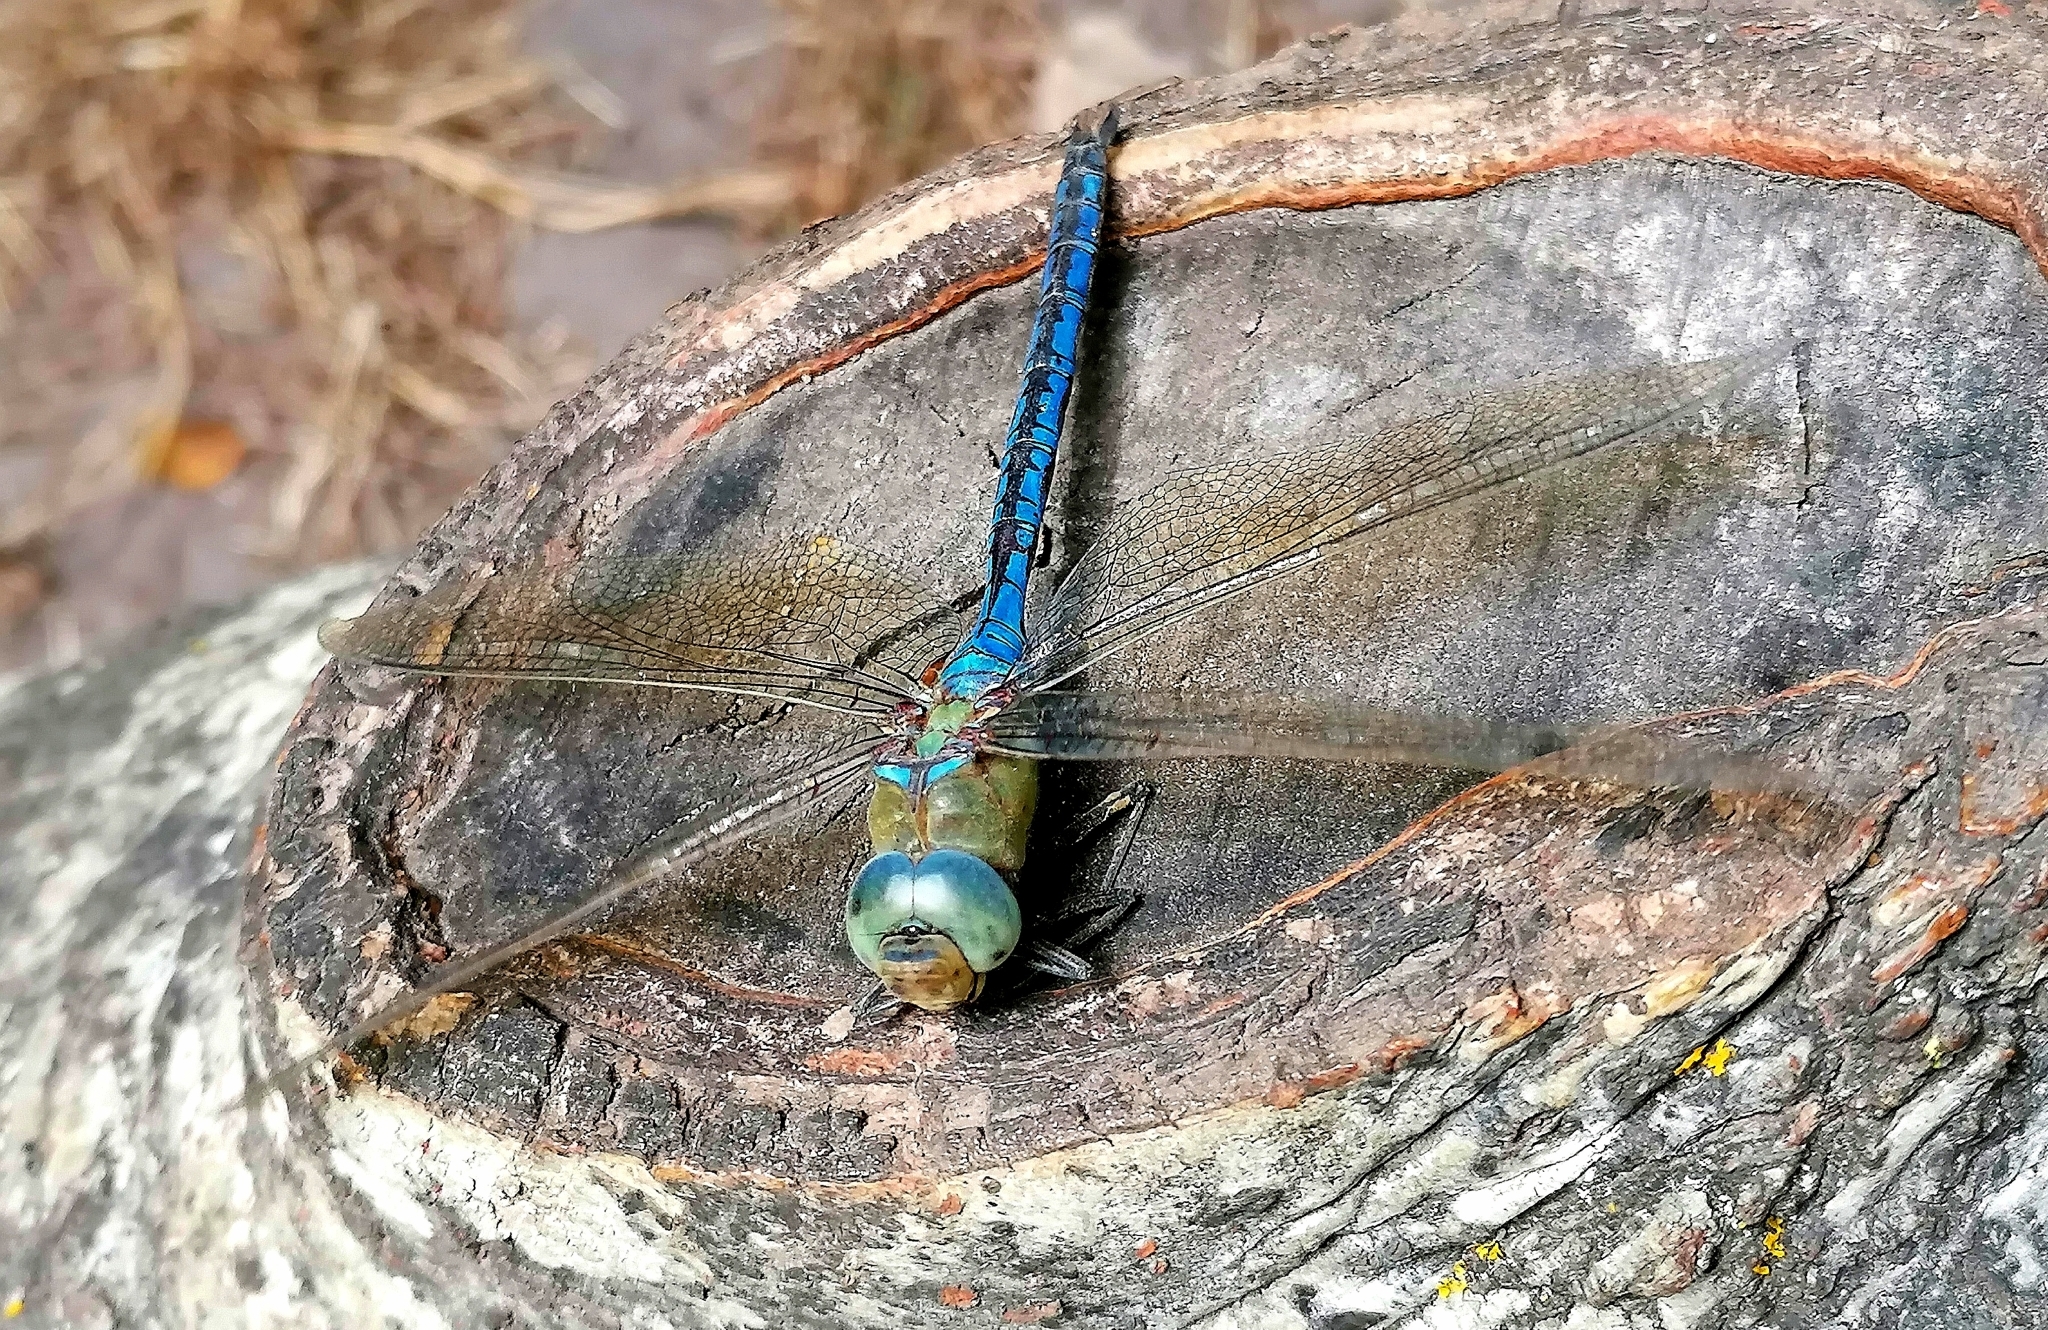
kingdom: Animalia
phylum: Arthropoda
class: Insecta
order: Odonata
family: Aeshnidae
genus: Anax
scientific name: Anax imperator
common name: Emperor dragonfly
